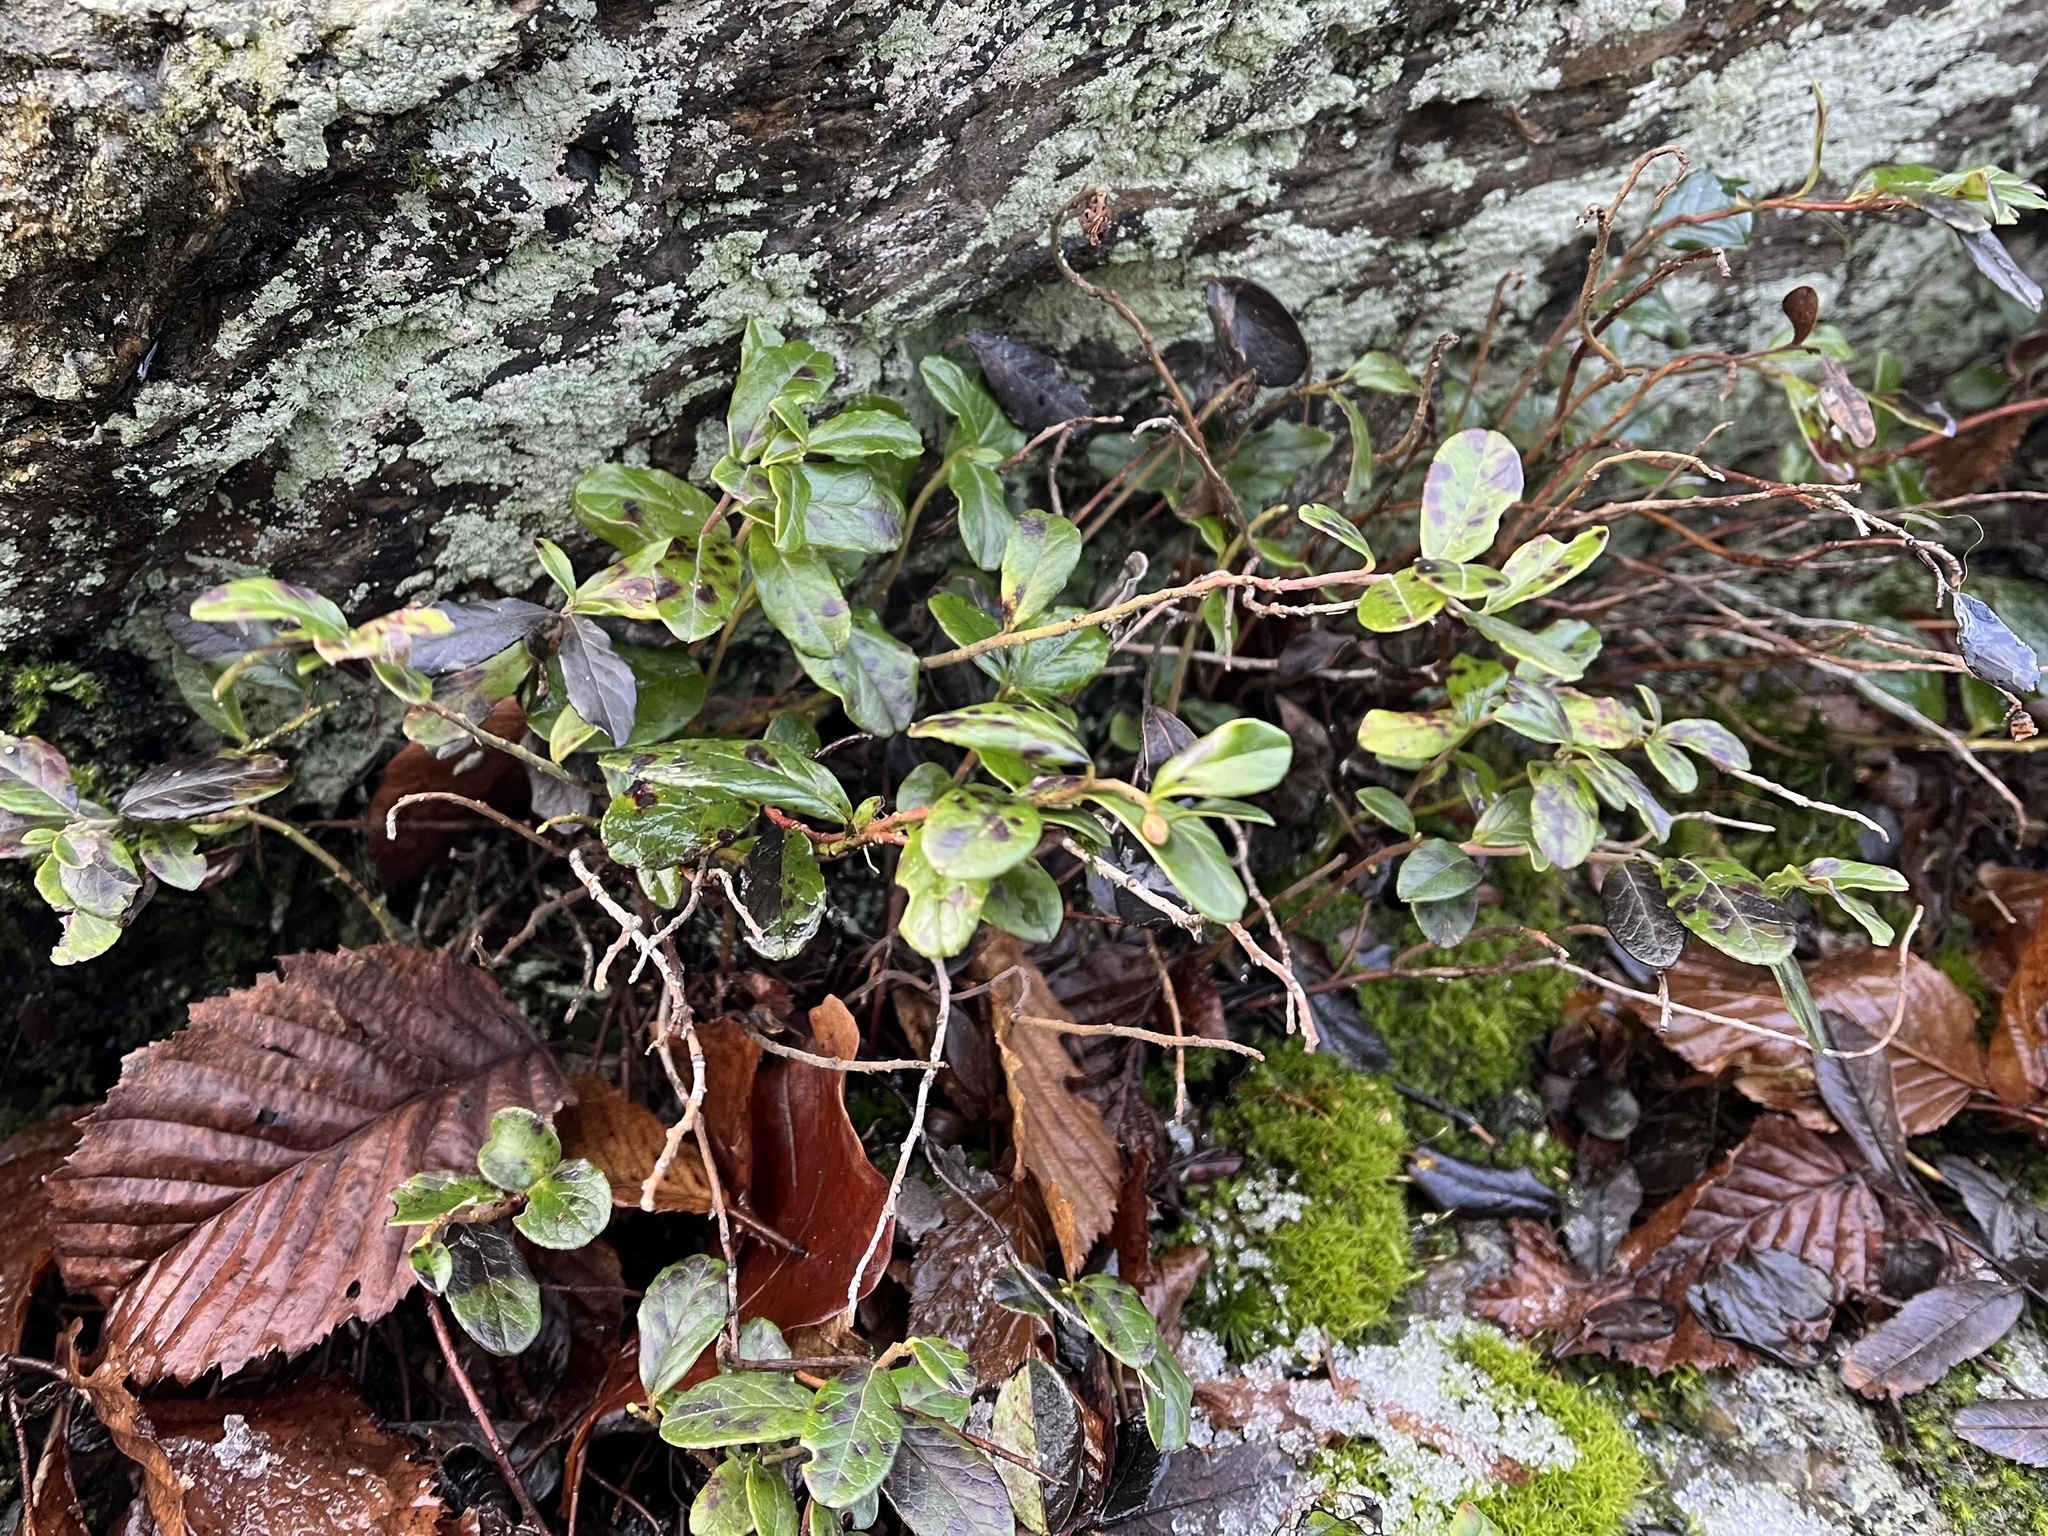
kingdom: Plantae
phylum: Tracheophyta
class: Magnoliopsida
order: Ericales
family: Ericaceae
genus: Vaccinium
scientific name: Vaccinium vitis-idaea
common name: Cowberry
